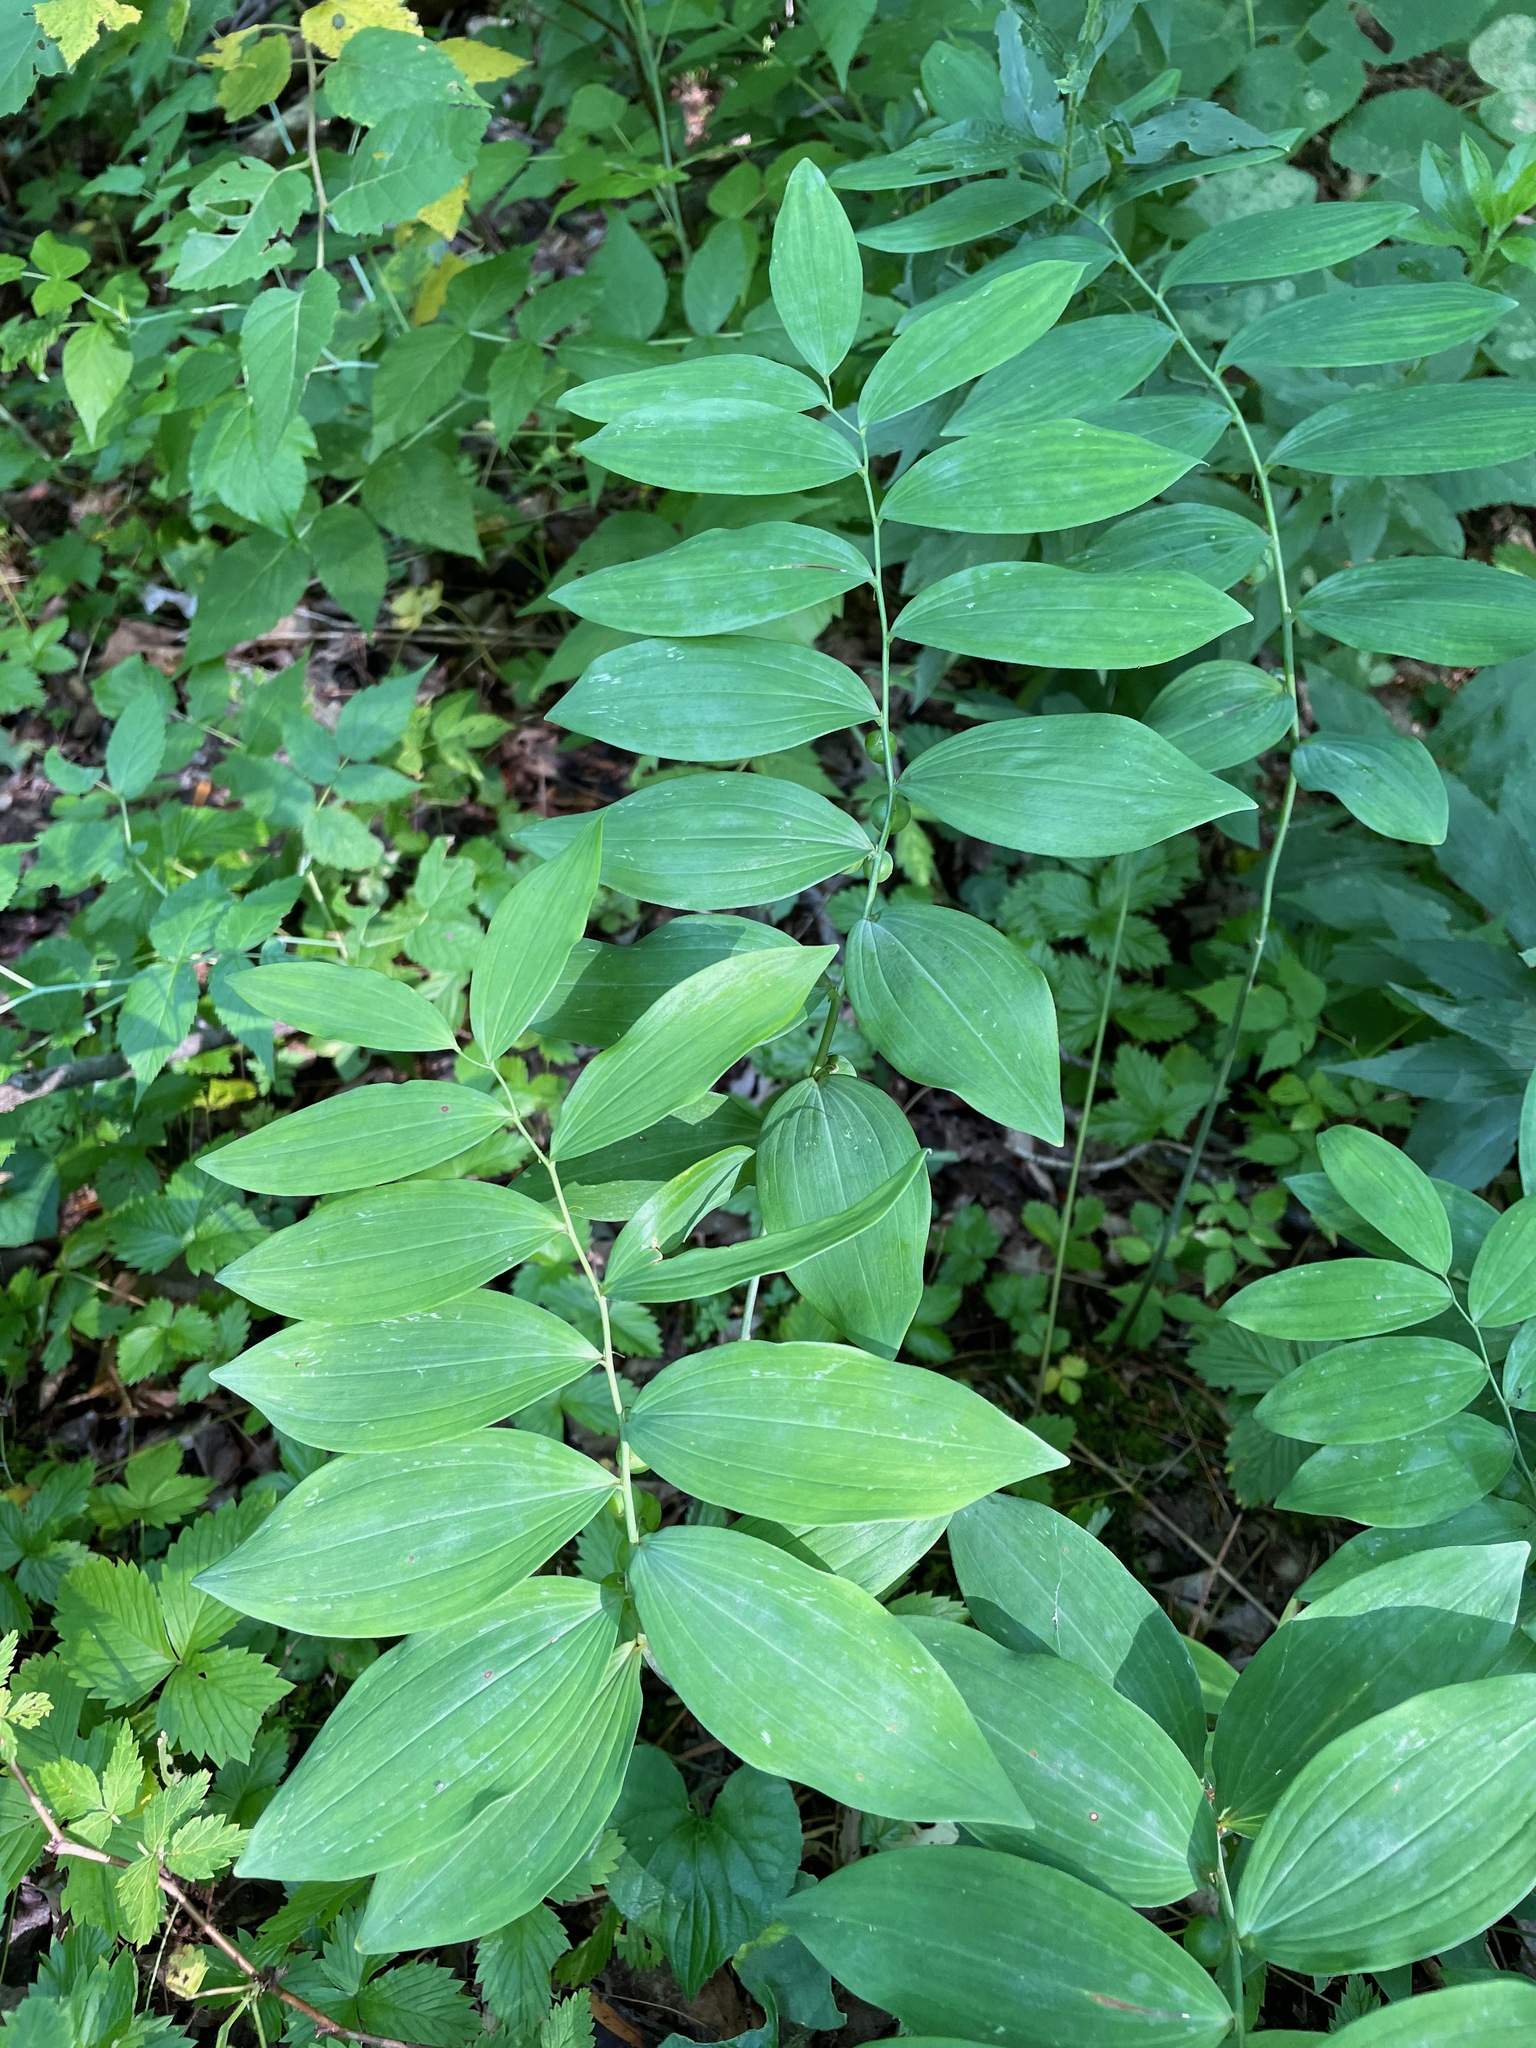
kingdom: Plantae
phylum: Tracheophyta
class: Liliopsida
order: Asparagales
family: Asparagaceae
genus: Polygonatum
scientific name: Polygonatum pubescens
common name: Downy solomon's seal
